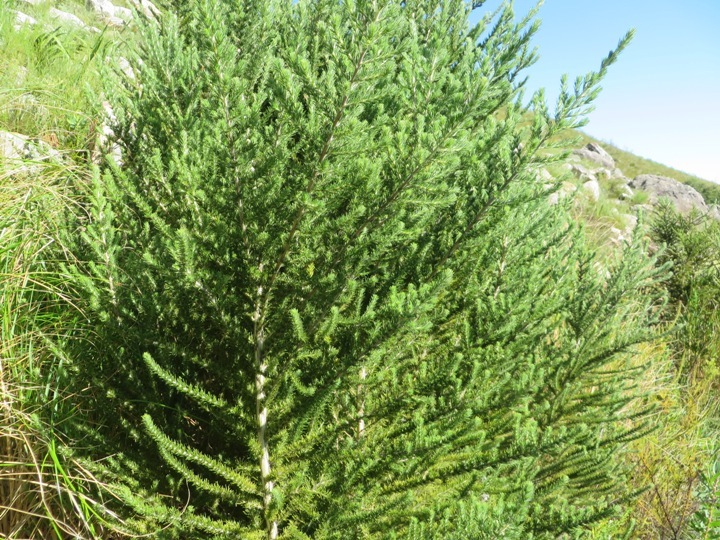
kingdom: Plantae
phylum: Tracheophyta
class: Magnoliopsida
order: Fabales
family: Fabaceae
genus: Aspalathus
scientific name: Aspalathus cephalotes
